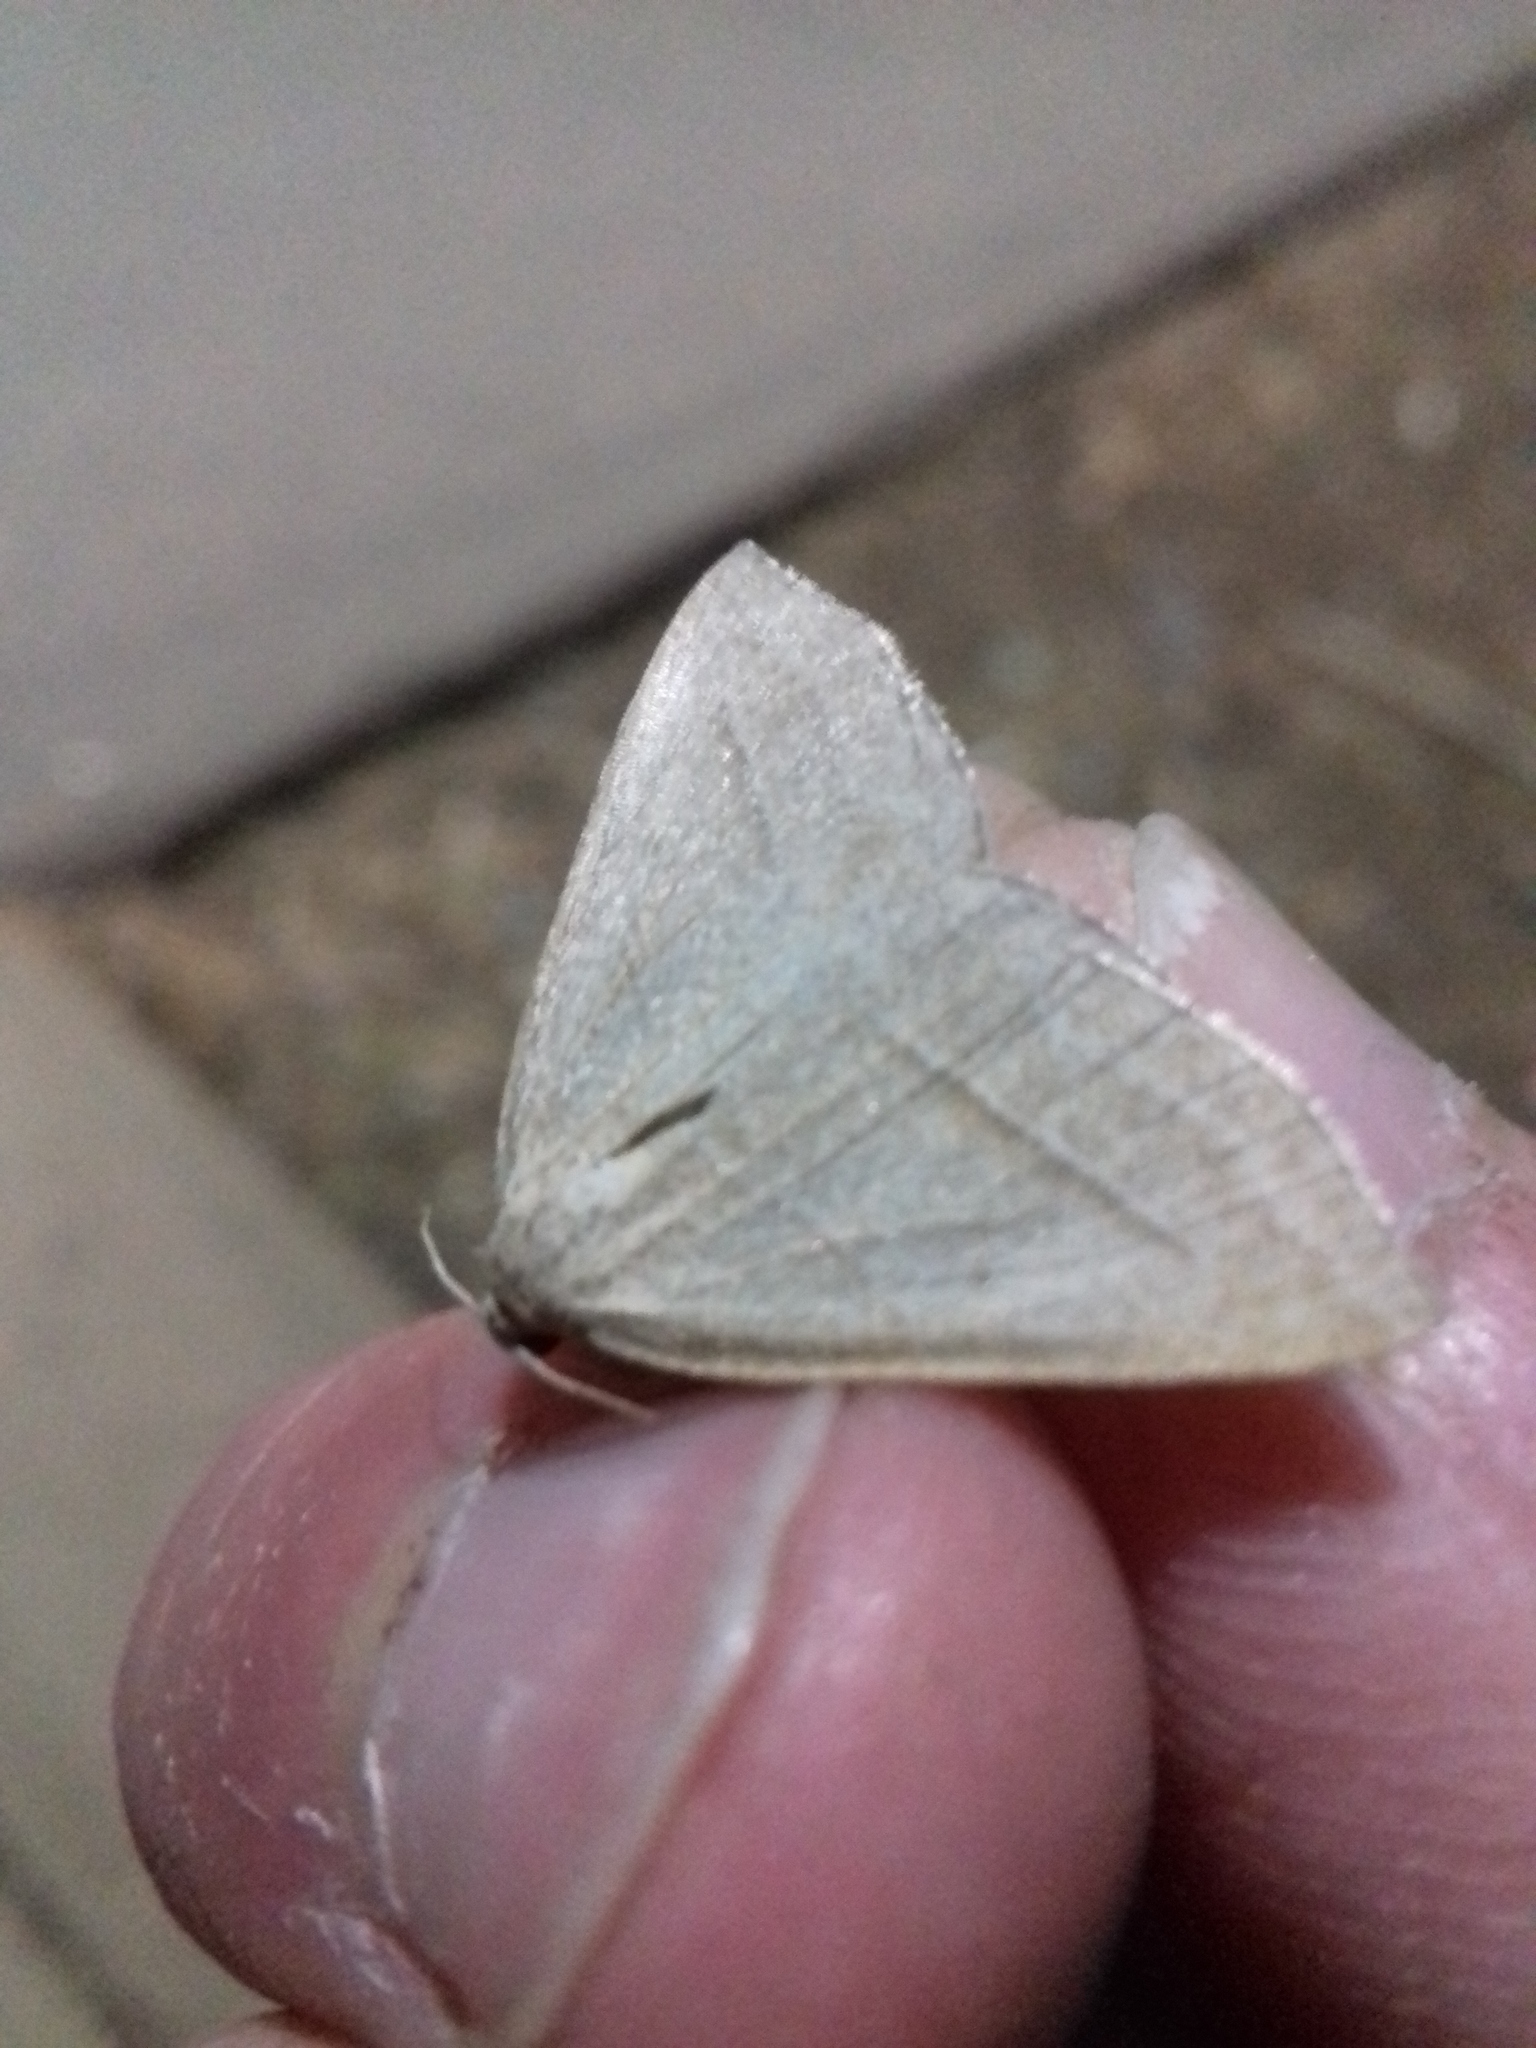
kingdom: Animalia
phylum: Arthropoda
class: Insecta
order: Lepidoptera
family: Pterophoridae
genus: Pterophorus
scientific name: Pterophorus Petrophora chlorosata
